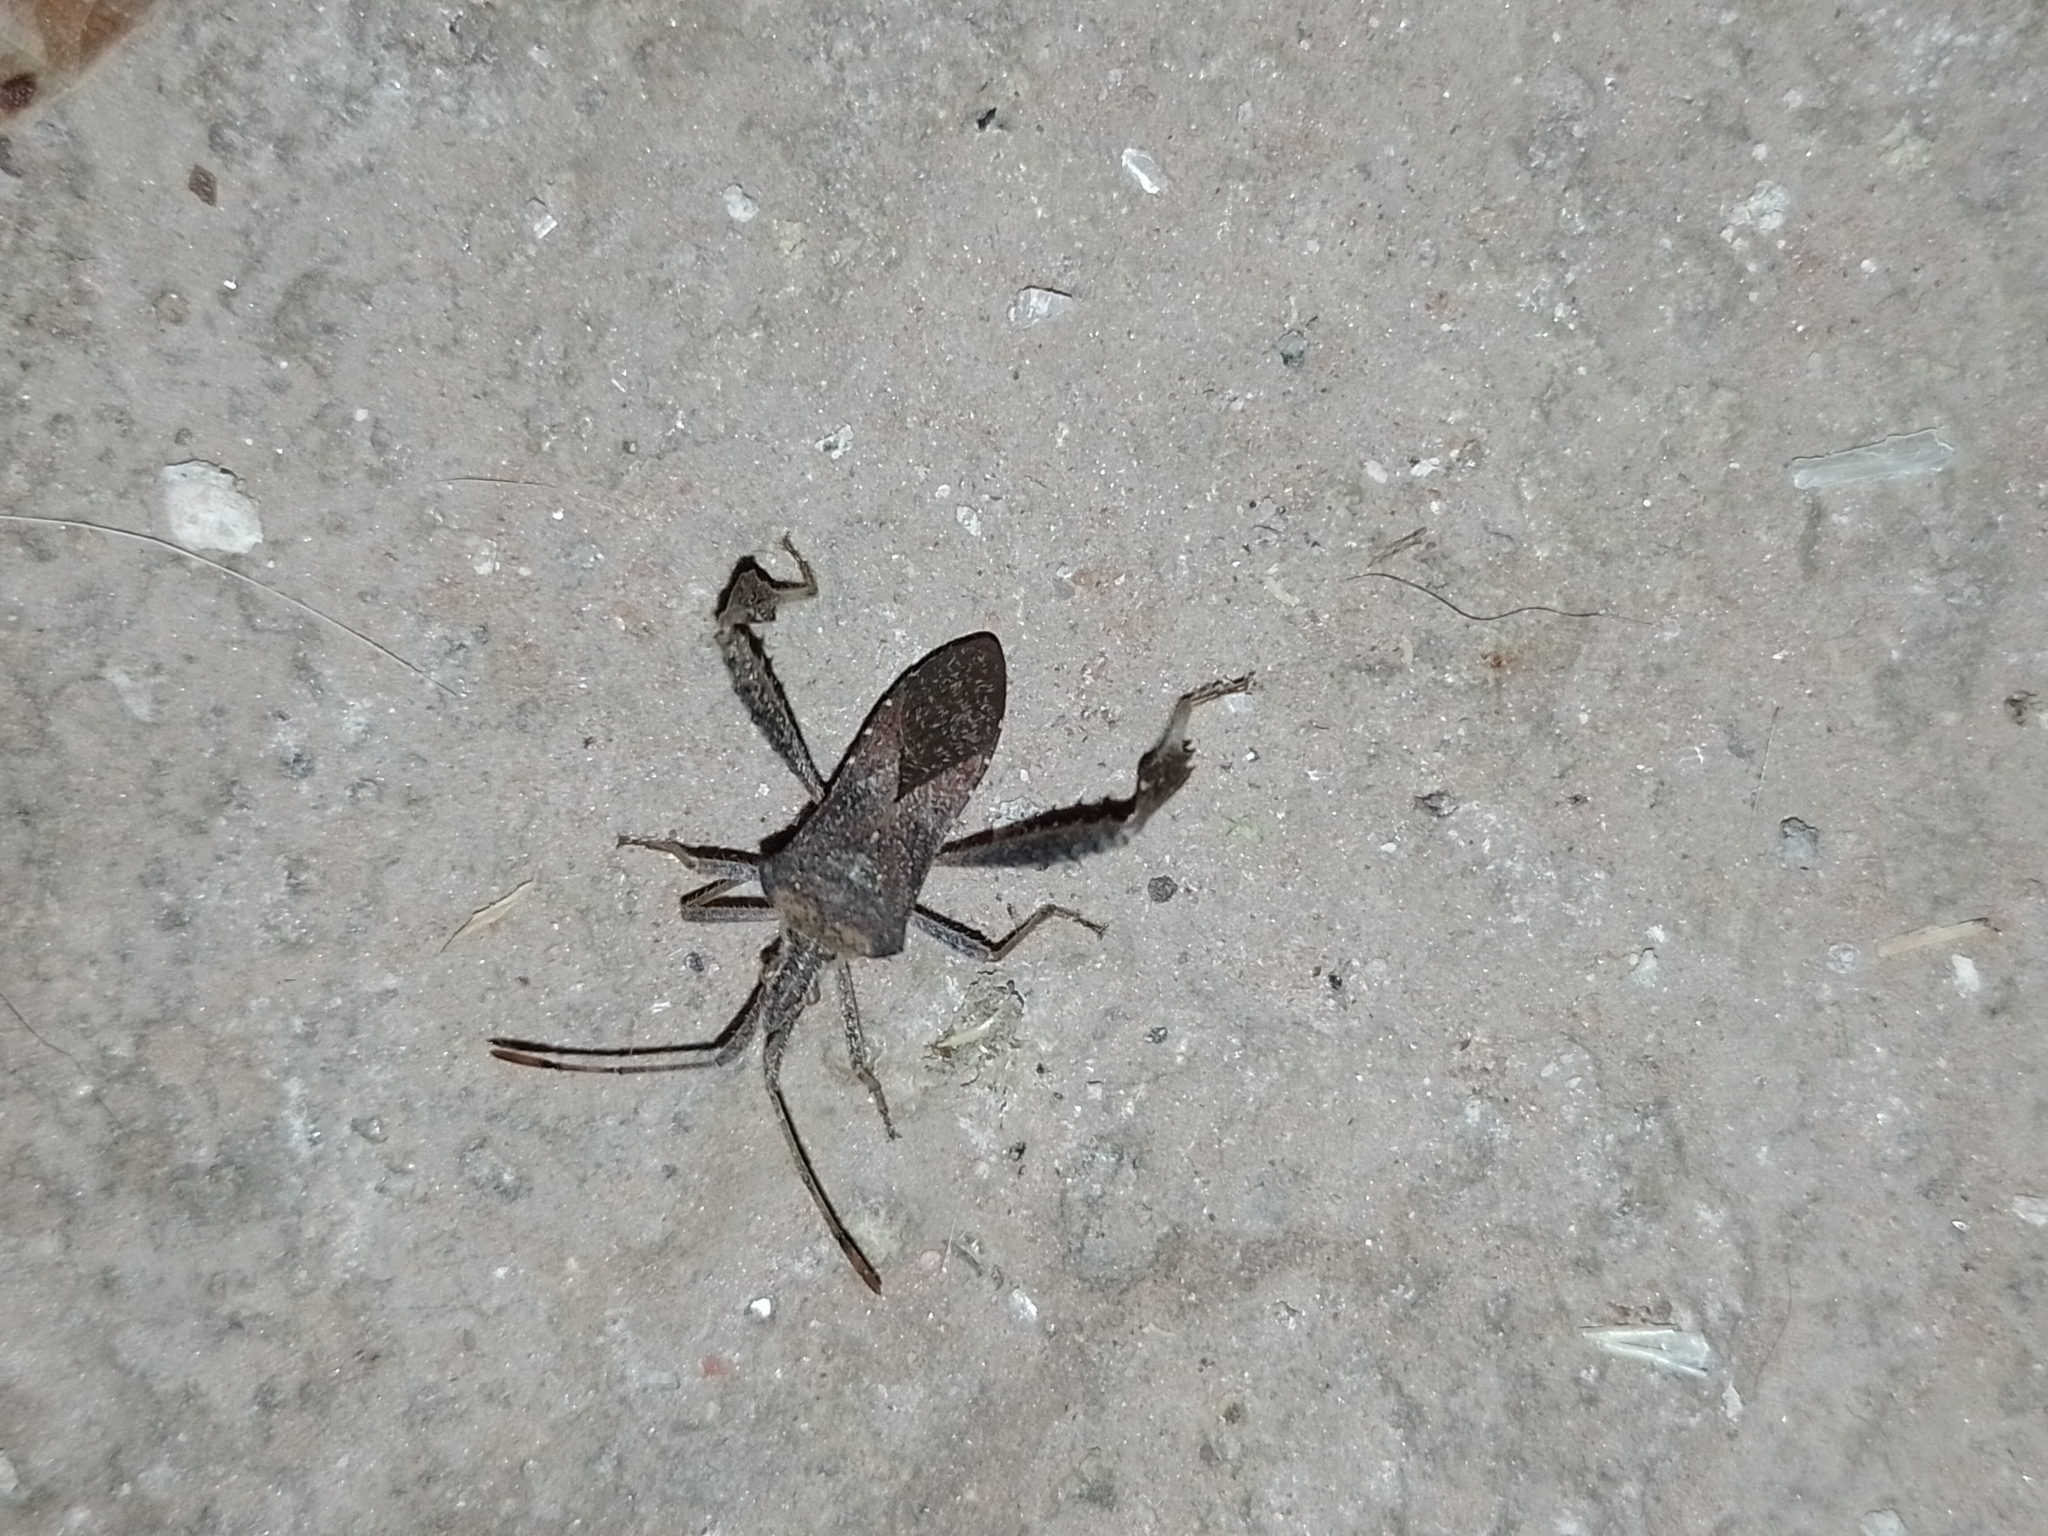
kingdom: Animalia
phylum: Arthropoda
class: Insecta
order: Hemiptera
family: Coreidae
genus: Leptoglossus
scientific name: Leptoglossus concaviusculus
